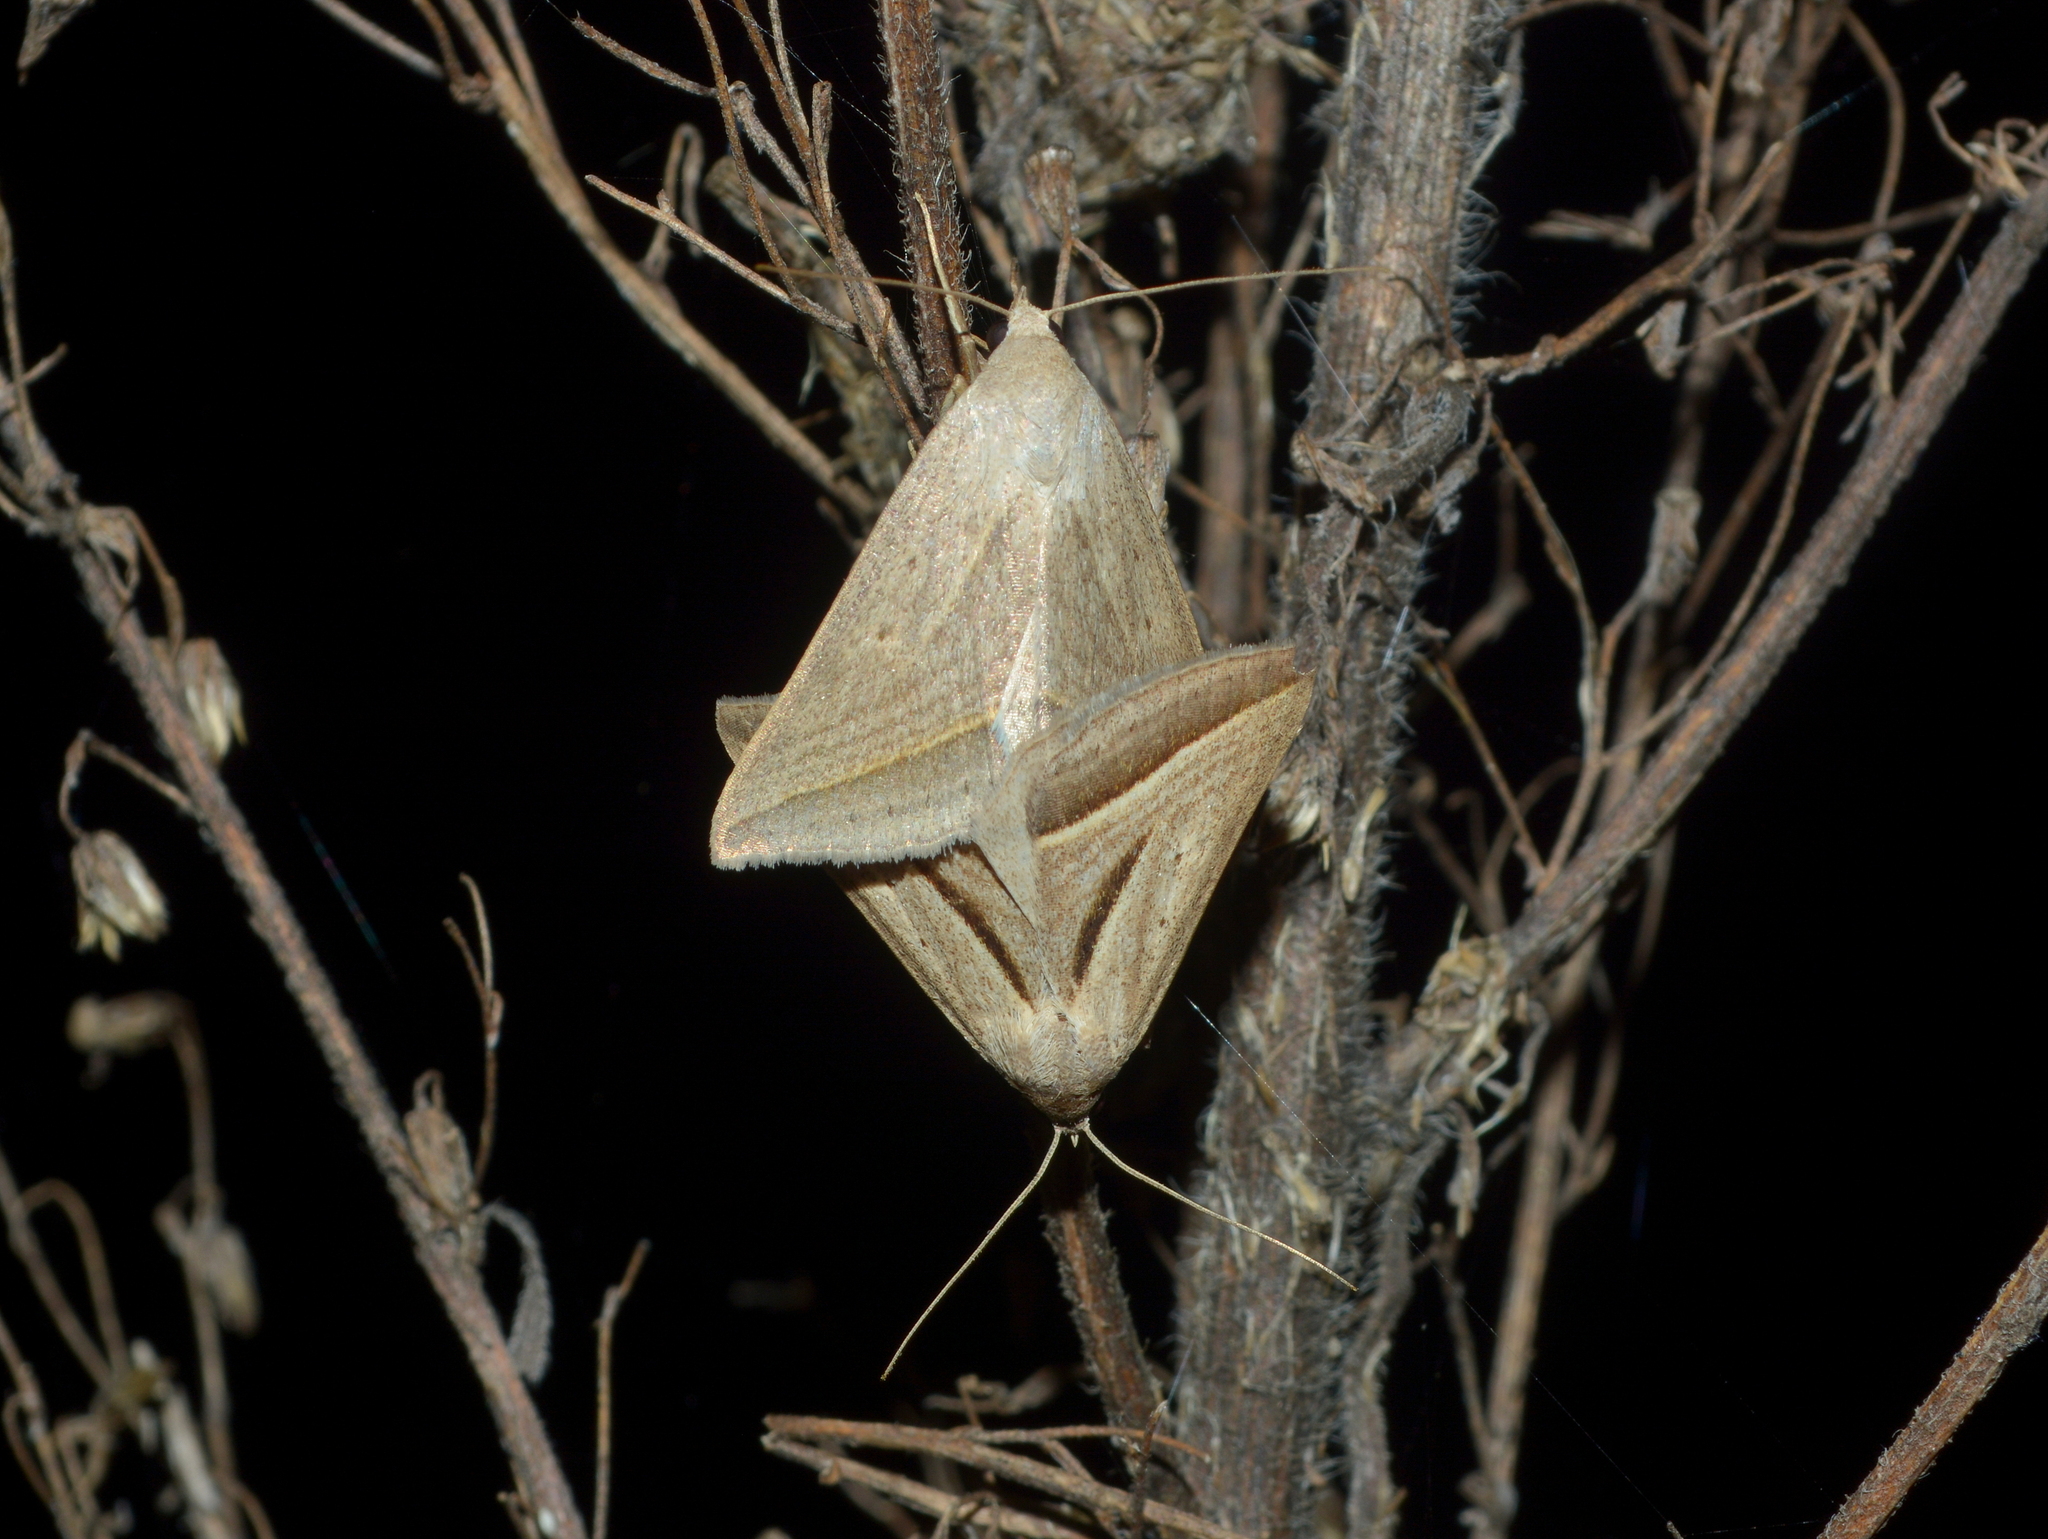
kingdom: Animalia
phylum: Arthropoda
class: Insecta
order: Lepidoptera
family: Erebidae
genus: Ptichodis
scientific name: Ptichodis dorsalis
